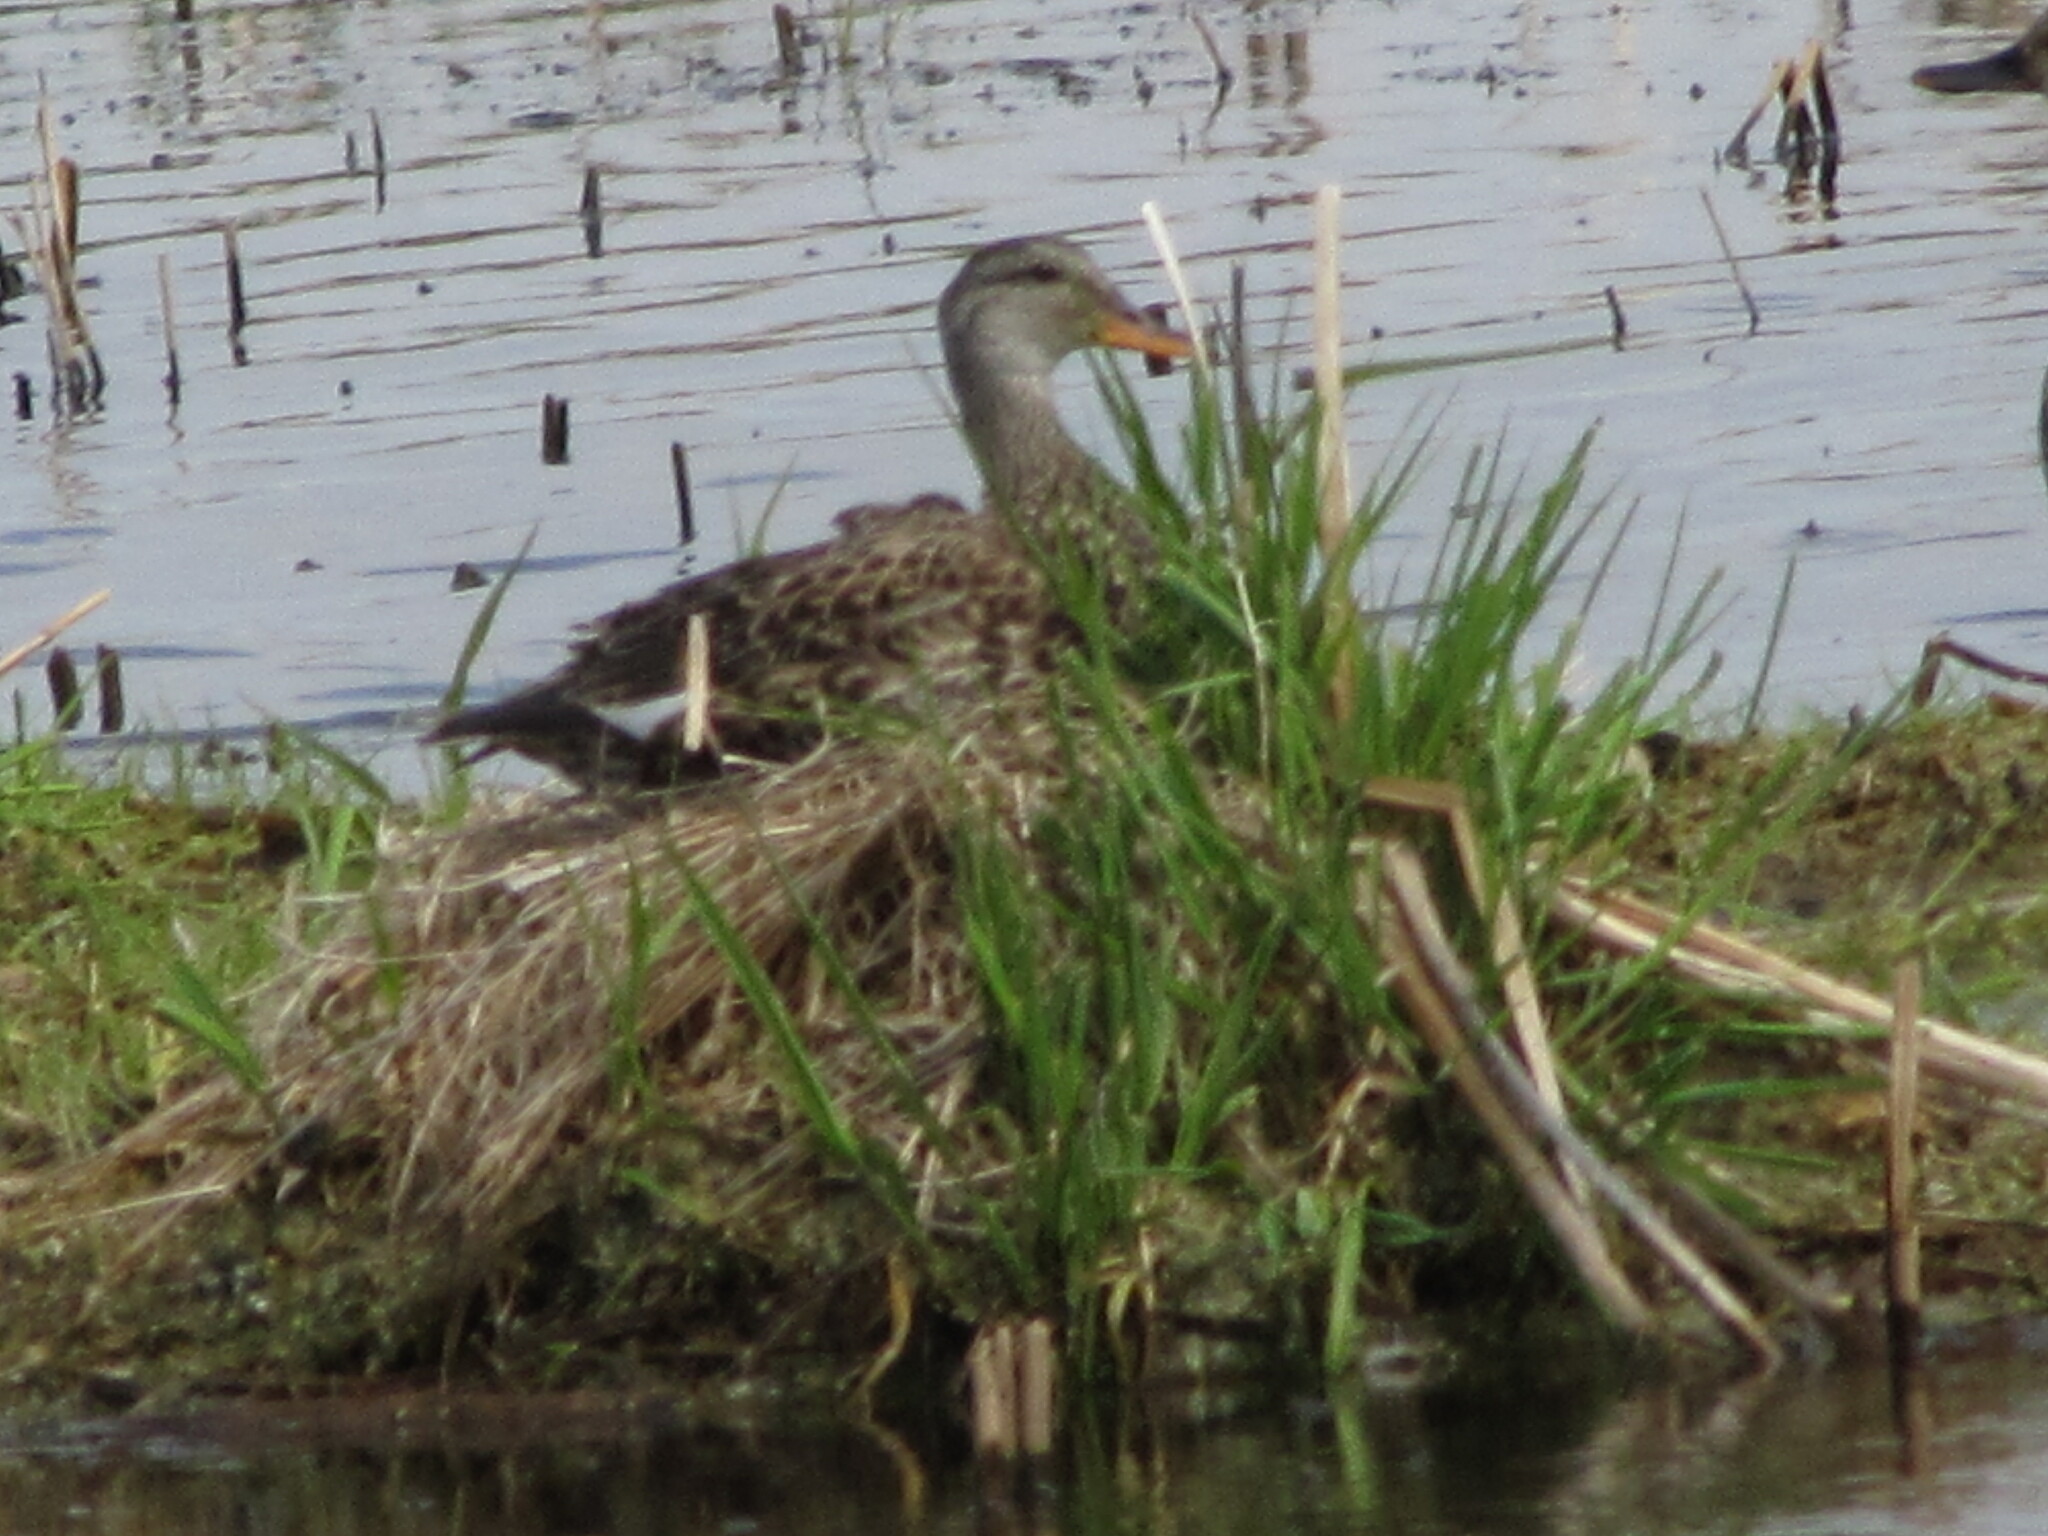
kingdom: Animalia
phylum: Chordata
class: Aves
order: Anseriformes
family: Anatidae
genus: Mareca
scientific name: Mareca strepera
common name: Gadwall
